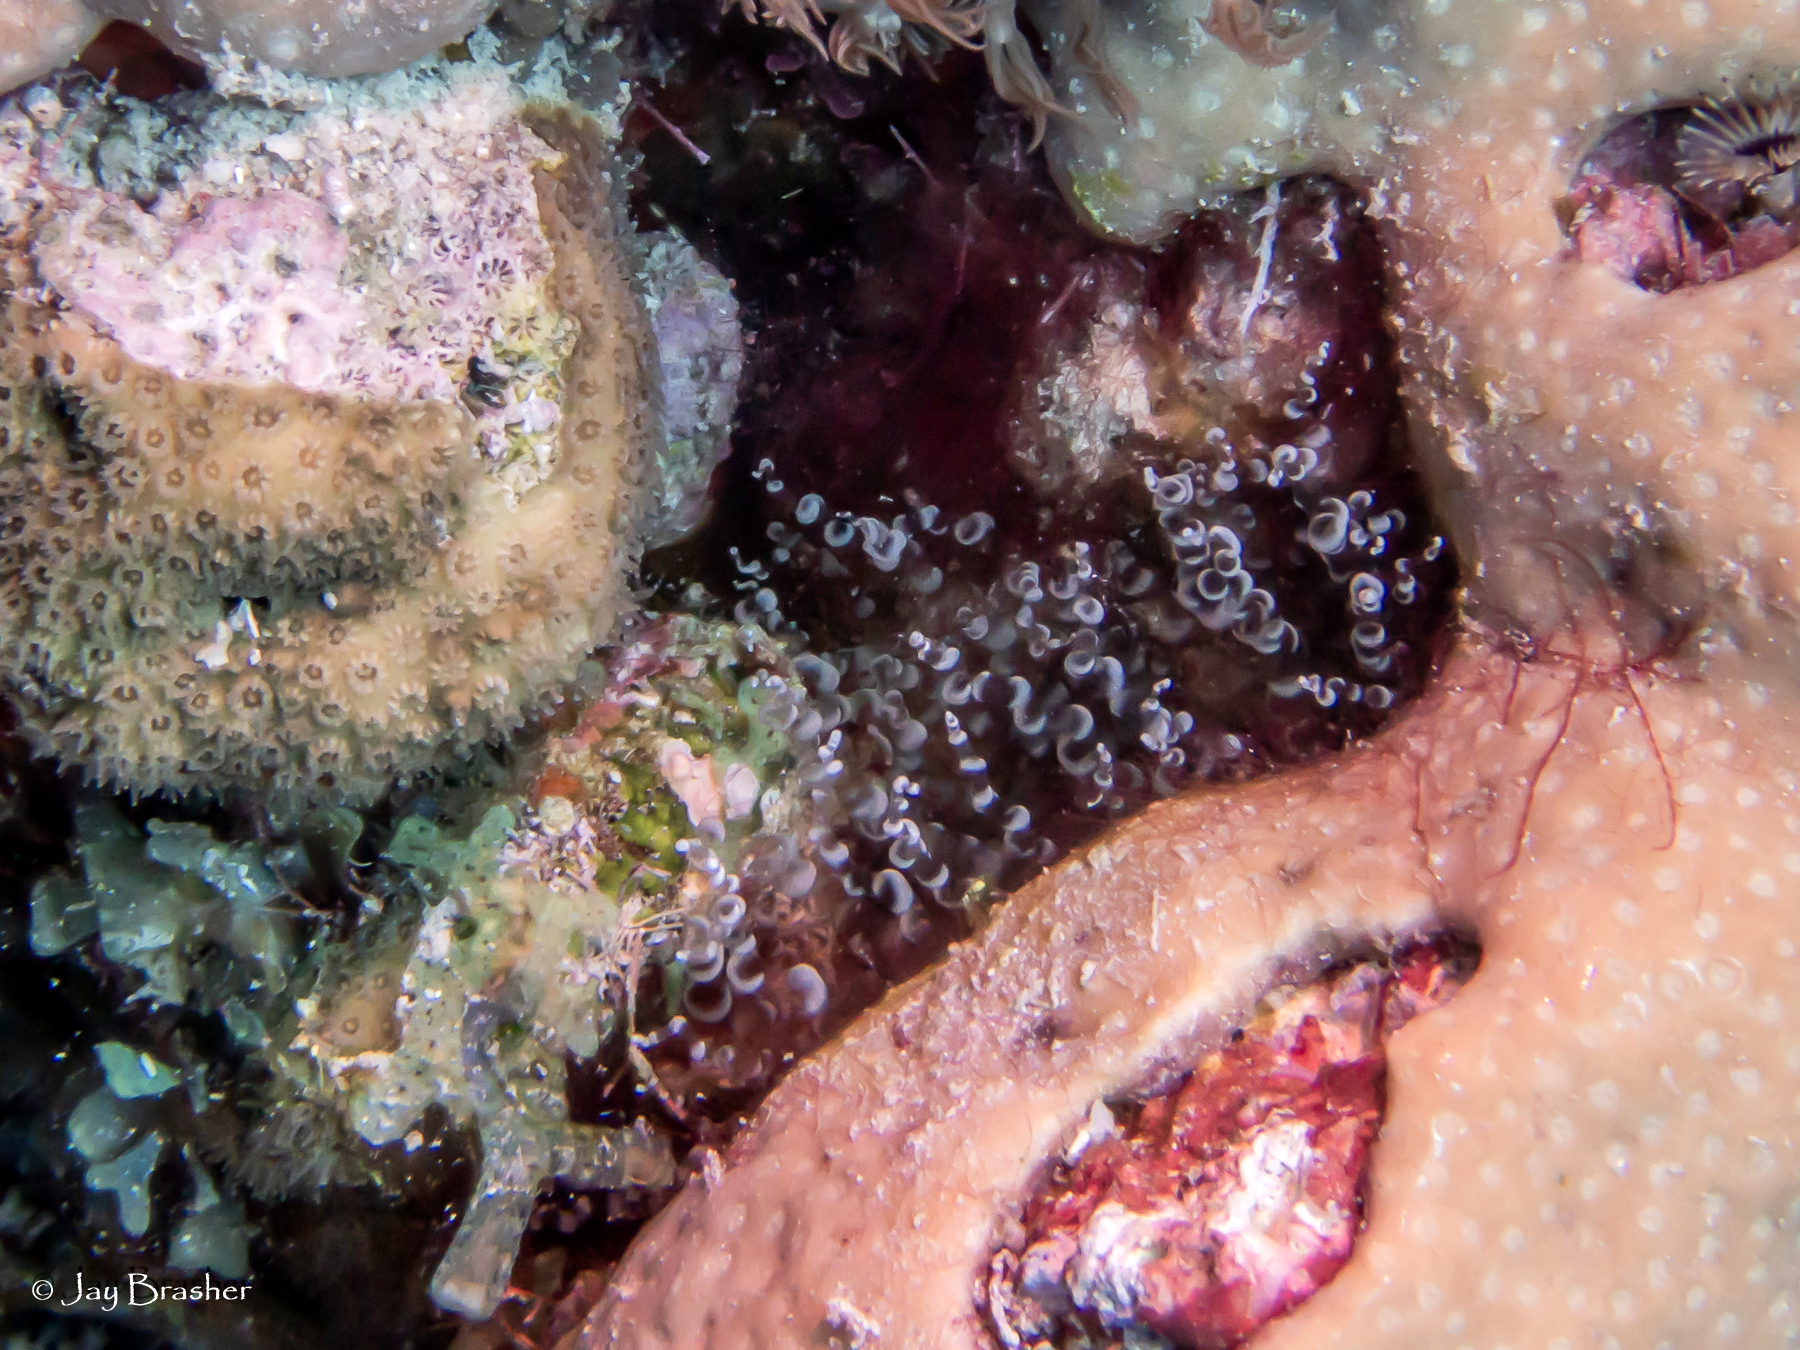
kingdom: Animalia
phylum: Cnidaria
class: Anthozoa
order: Actiniaria
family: Aiptasiidae
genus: Bartholomea
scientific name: Bartholomea annulata
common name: Corkscrew anemone
